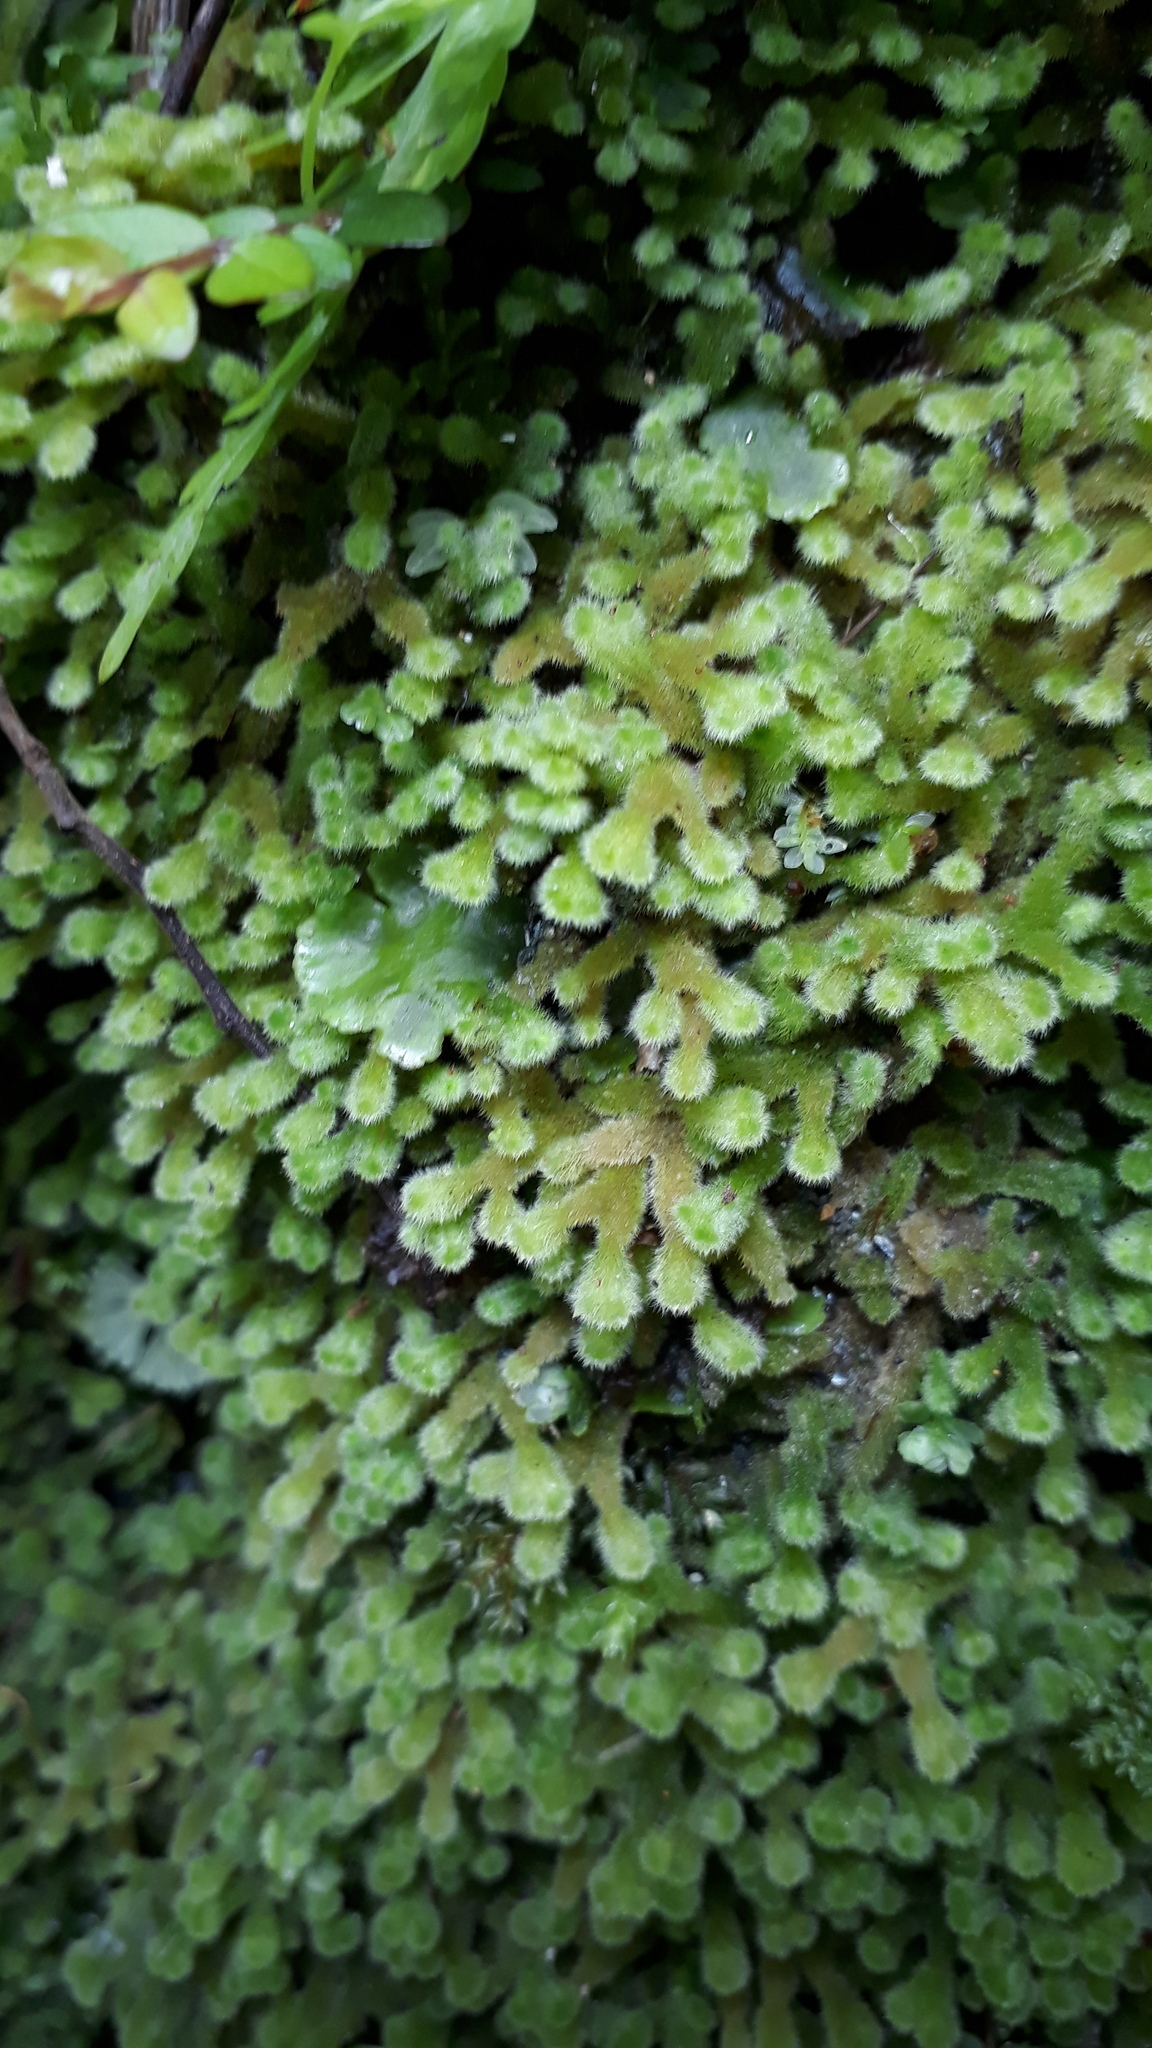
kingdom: Plantae
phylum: Marchantiophyta
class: Jungermanniopsida
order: Jungermanniales
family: Trichocoleaceae
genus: Leiomitra
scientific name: Leiomitra lanata
